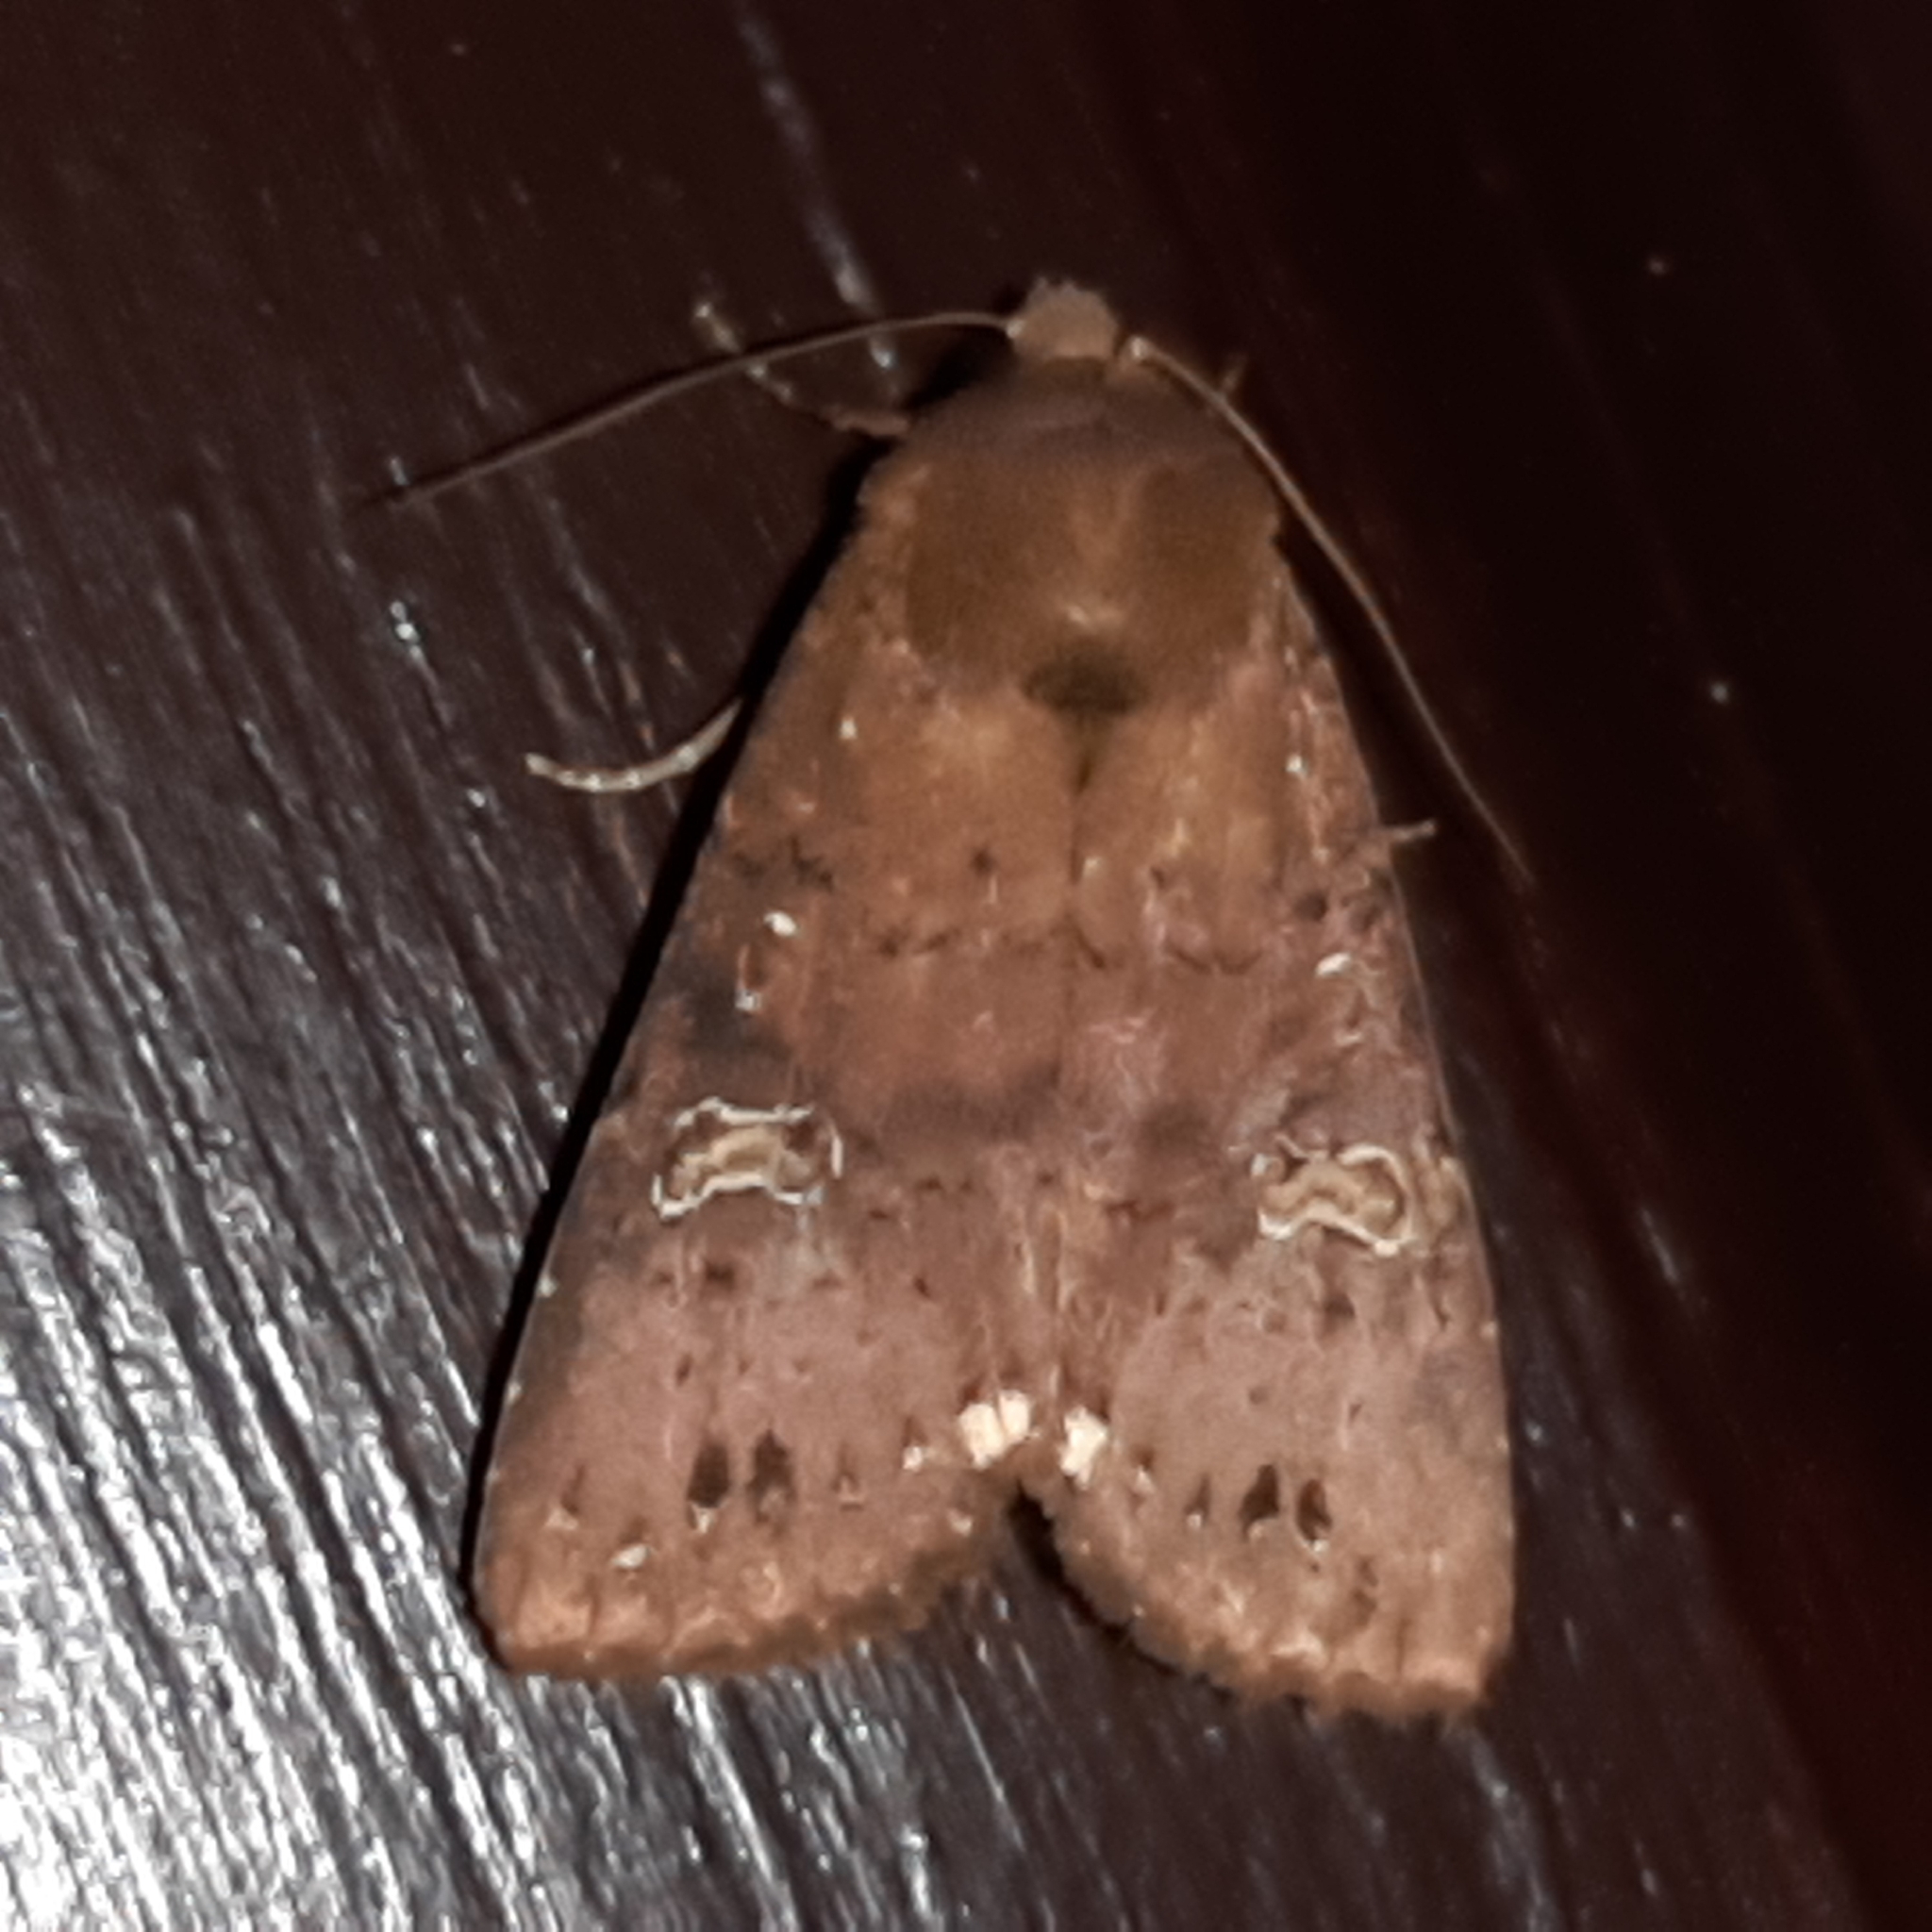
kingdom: Animalia
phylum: Arthropoda
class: Insecta
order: Lepidoptera
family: Noctuidae
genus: Eriopyga
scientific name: Eriopyga limonis
